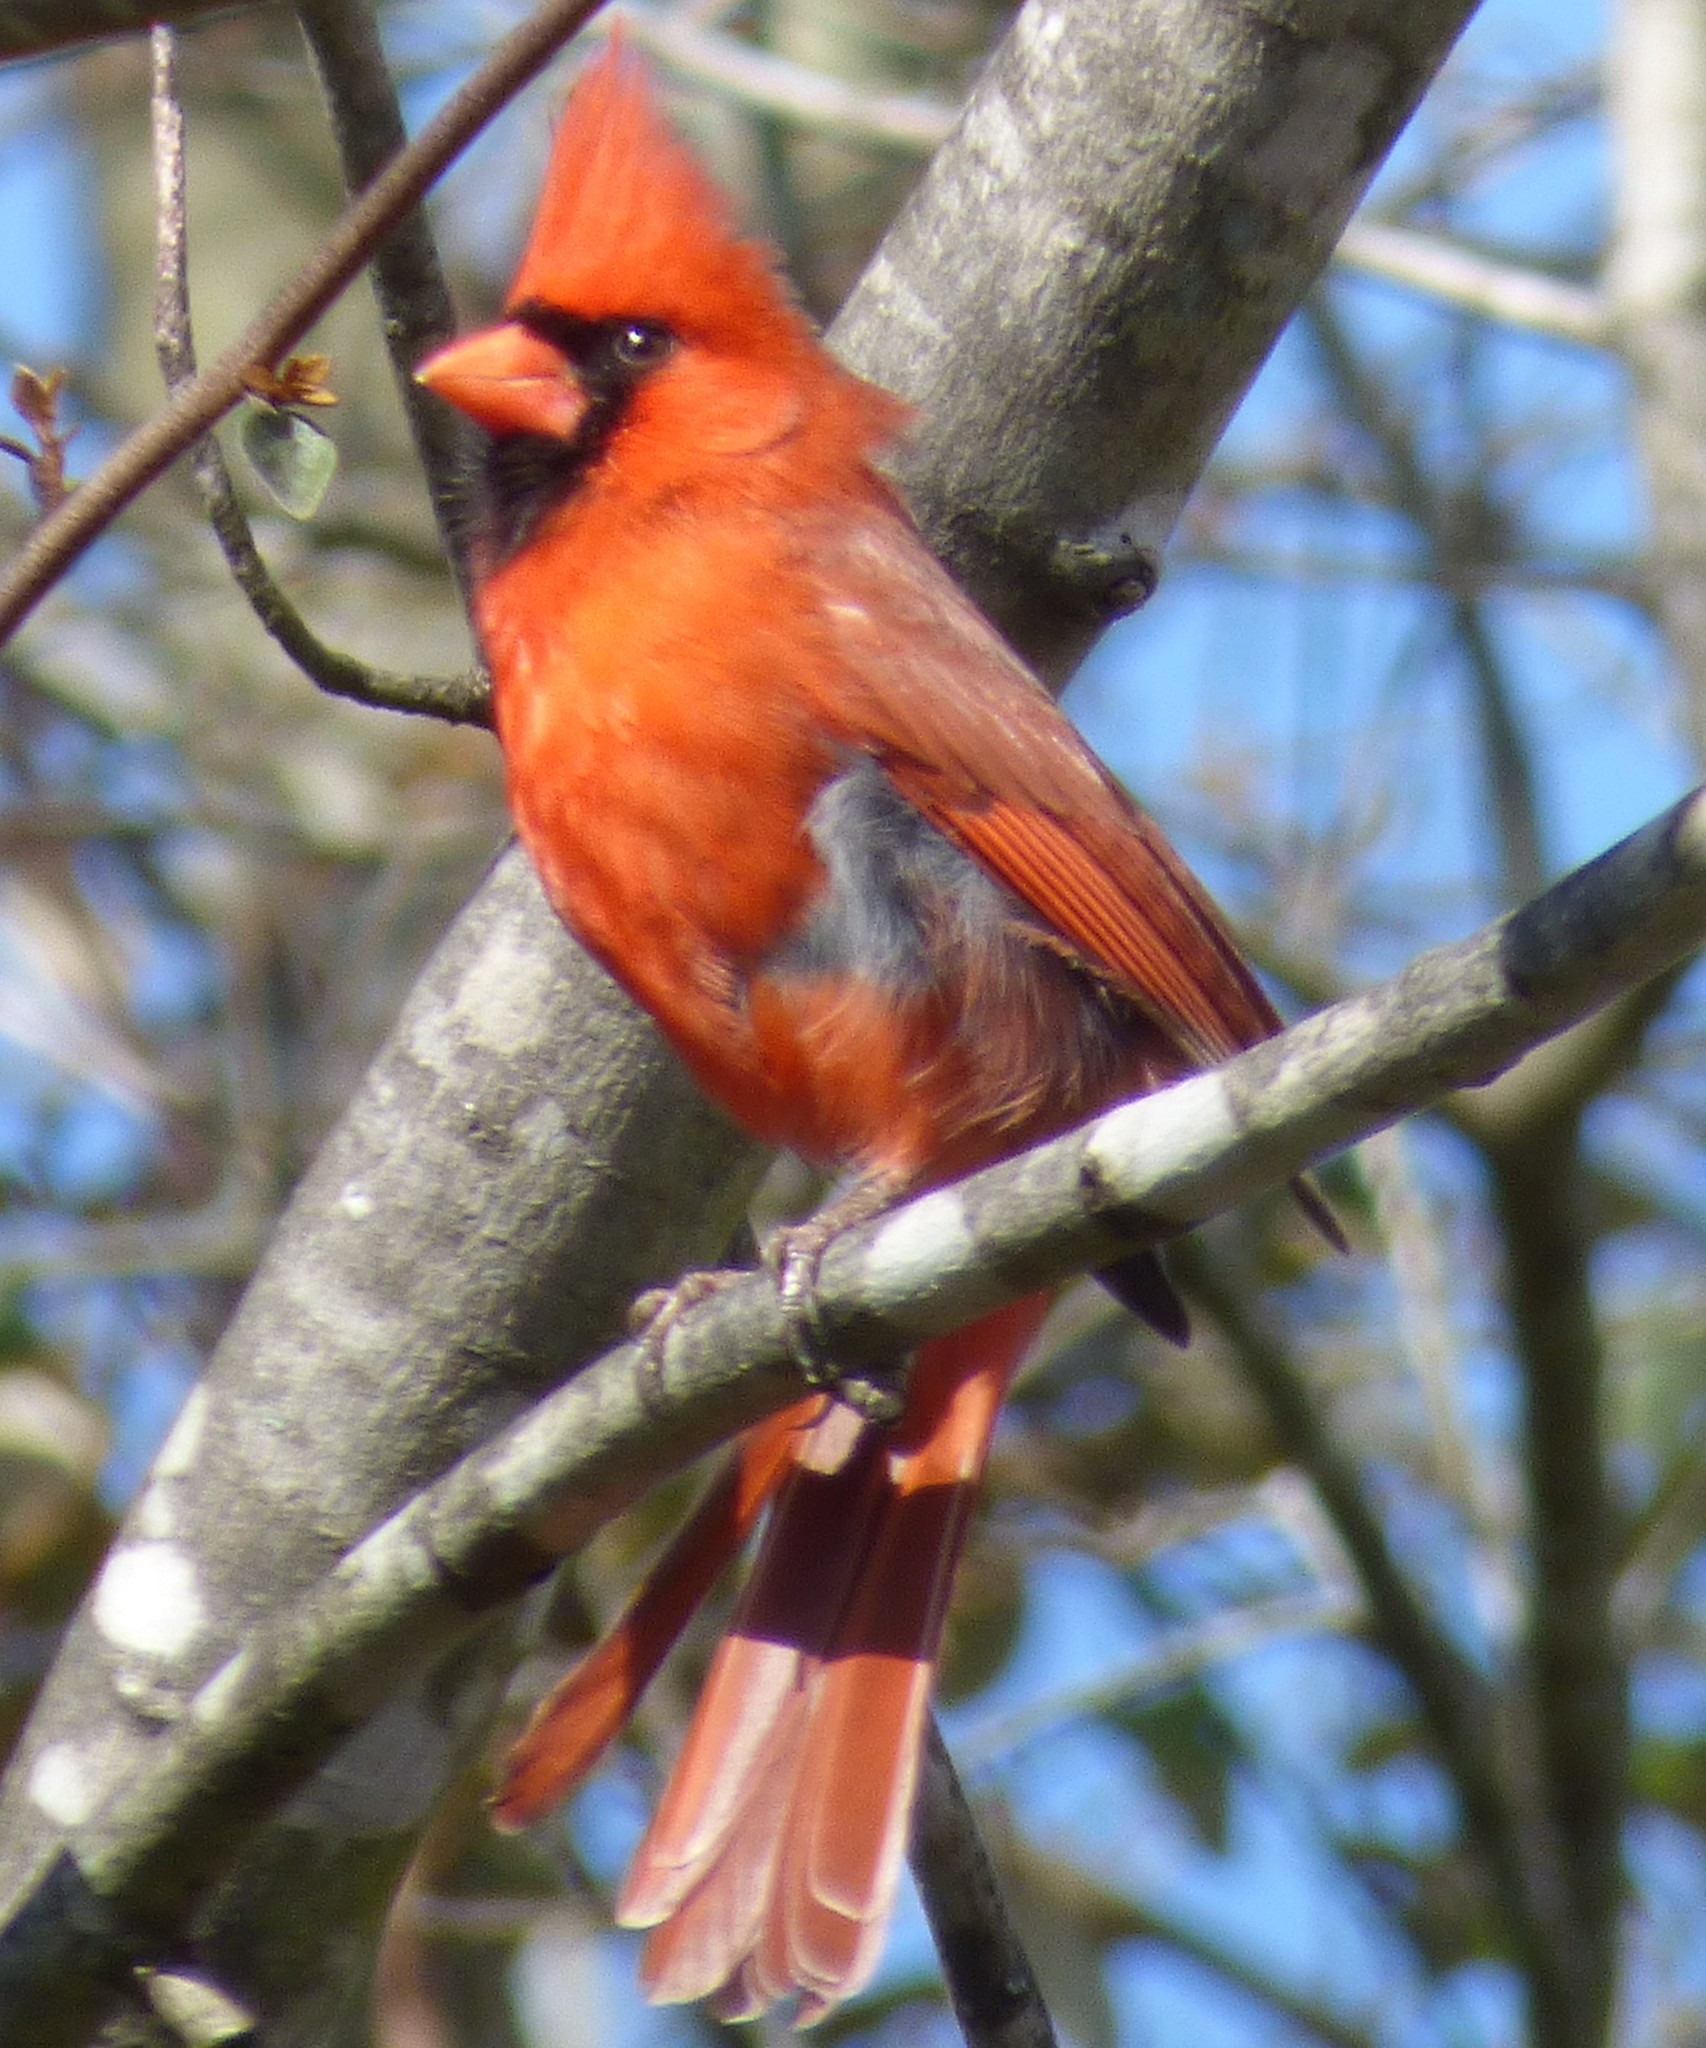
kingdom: Animalia
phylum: Chordata
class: Aves
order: Passeriformes
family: Cardinalidae
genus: Cardinalis
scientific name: Cardinalis cardinalis
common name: Northern cardinal
